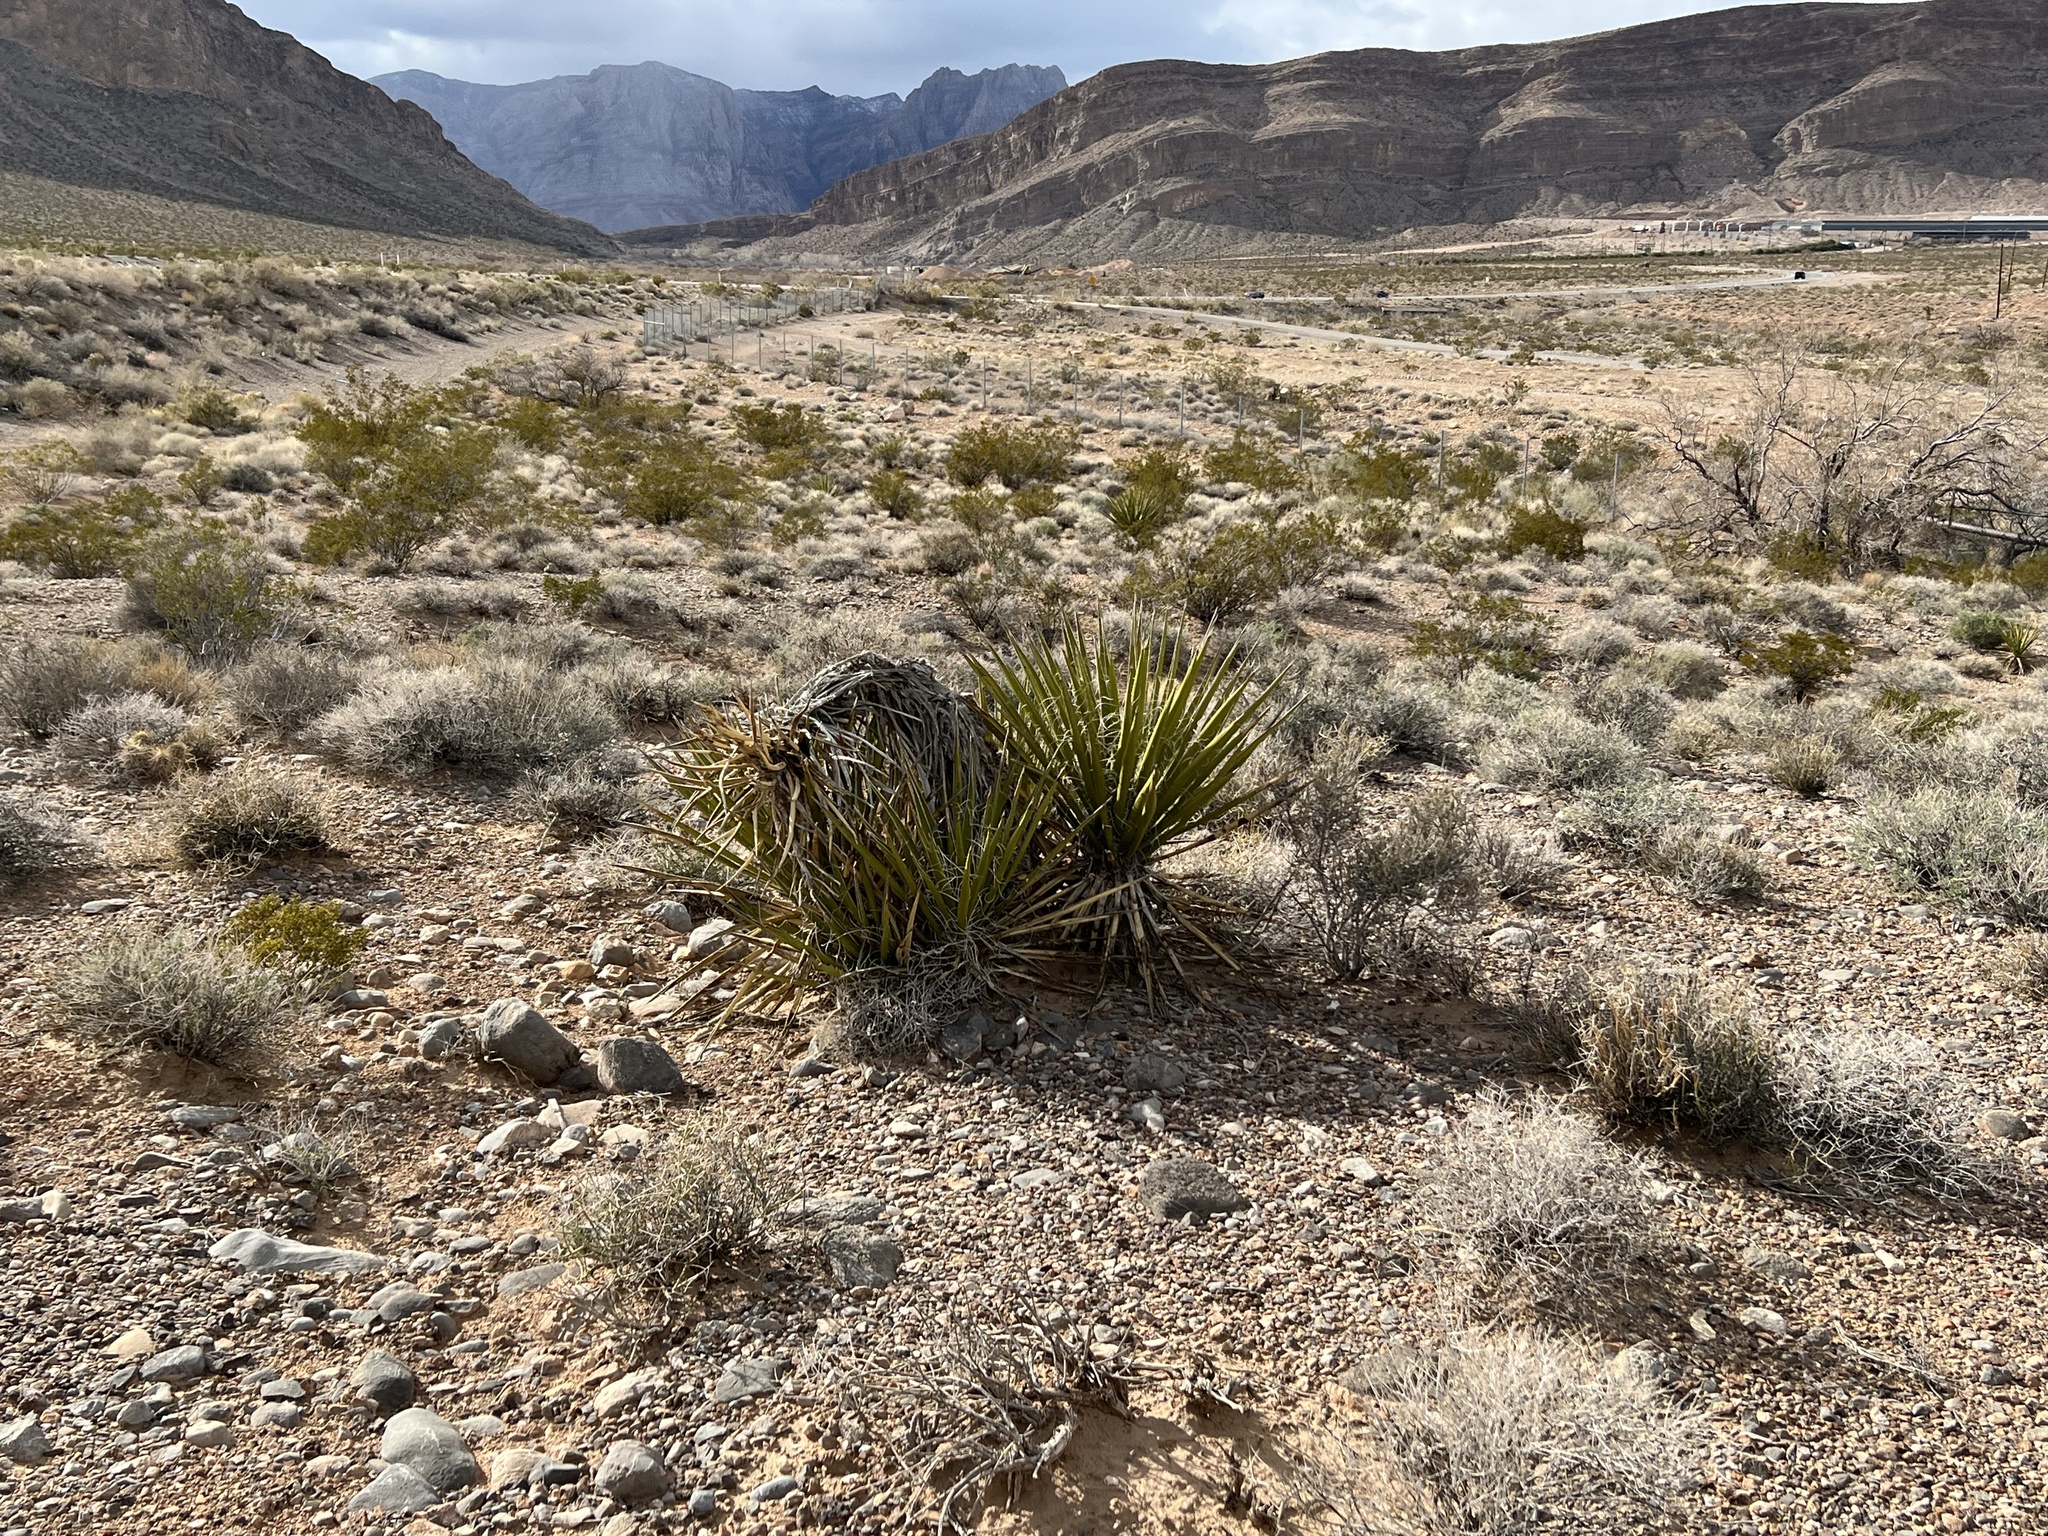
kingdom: Plantae
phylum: Tracheophyta
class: Liliopsida
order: Asparagales
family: Asparagaceae
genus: Yucca
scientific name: Yucca schidigera
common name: Mojave yucca
